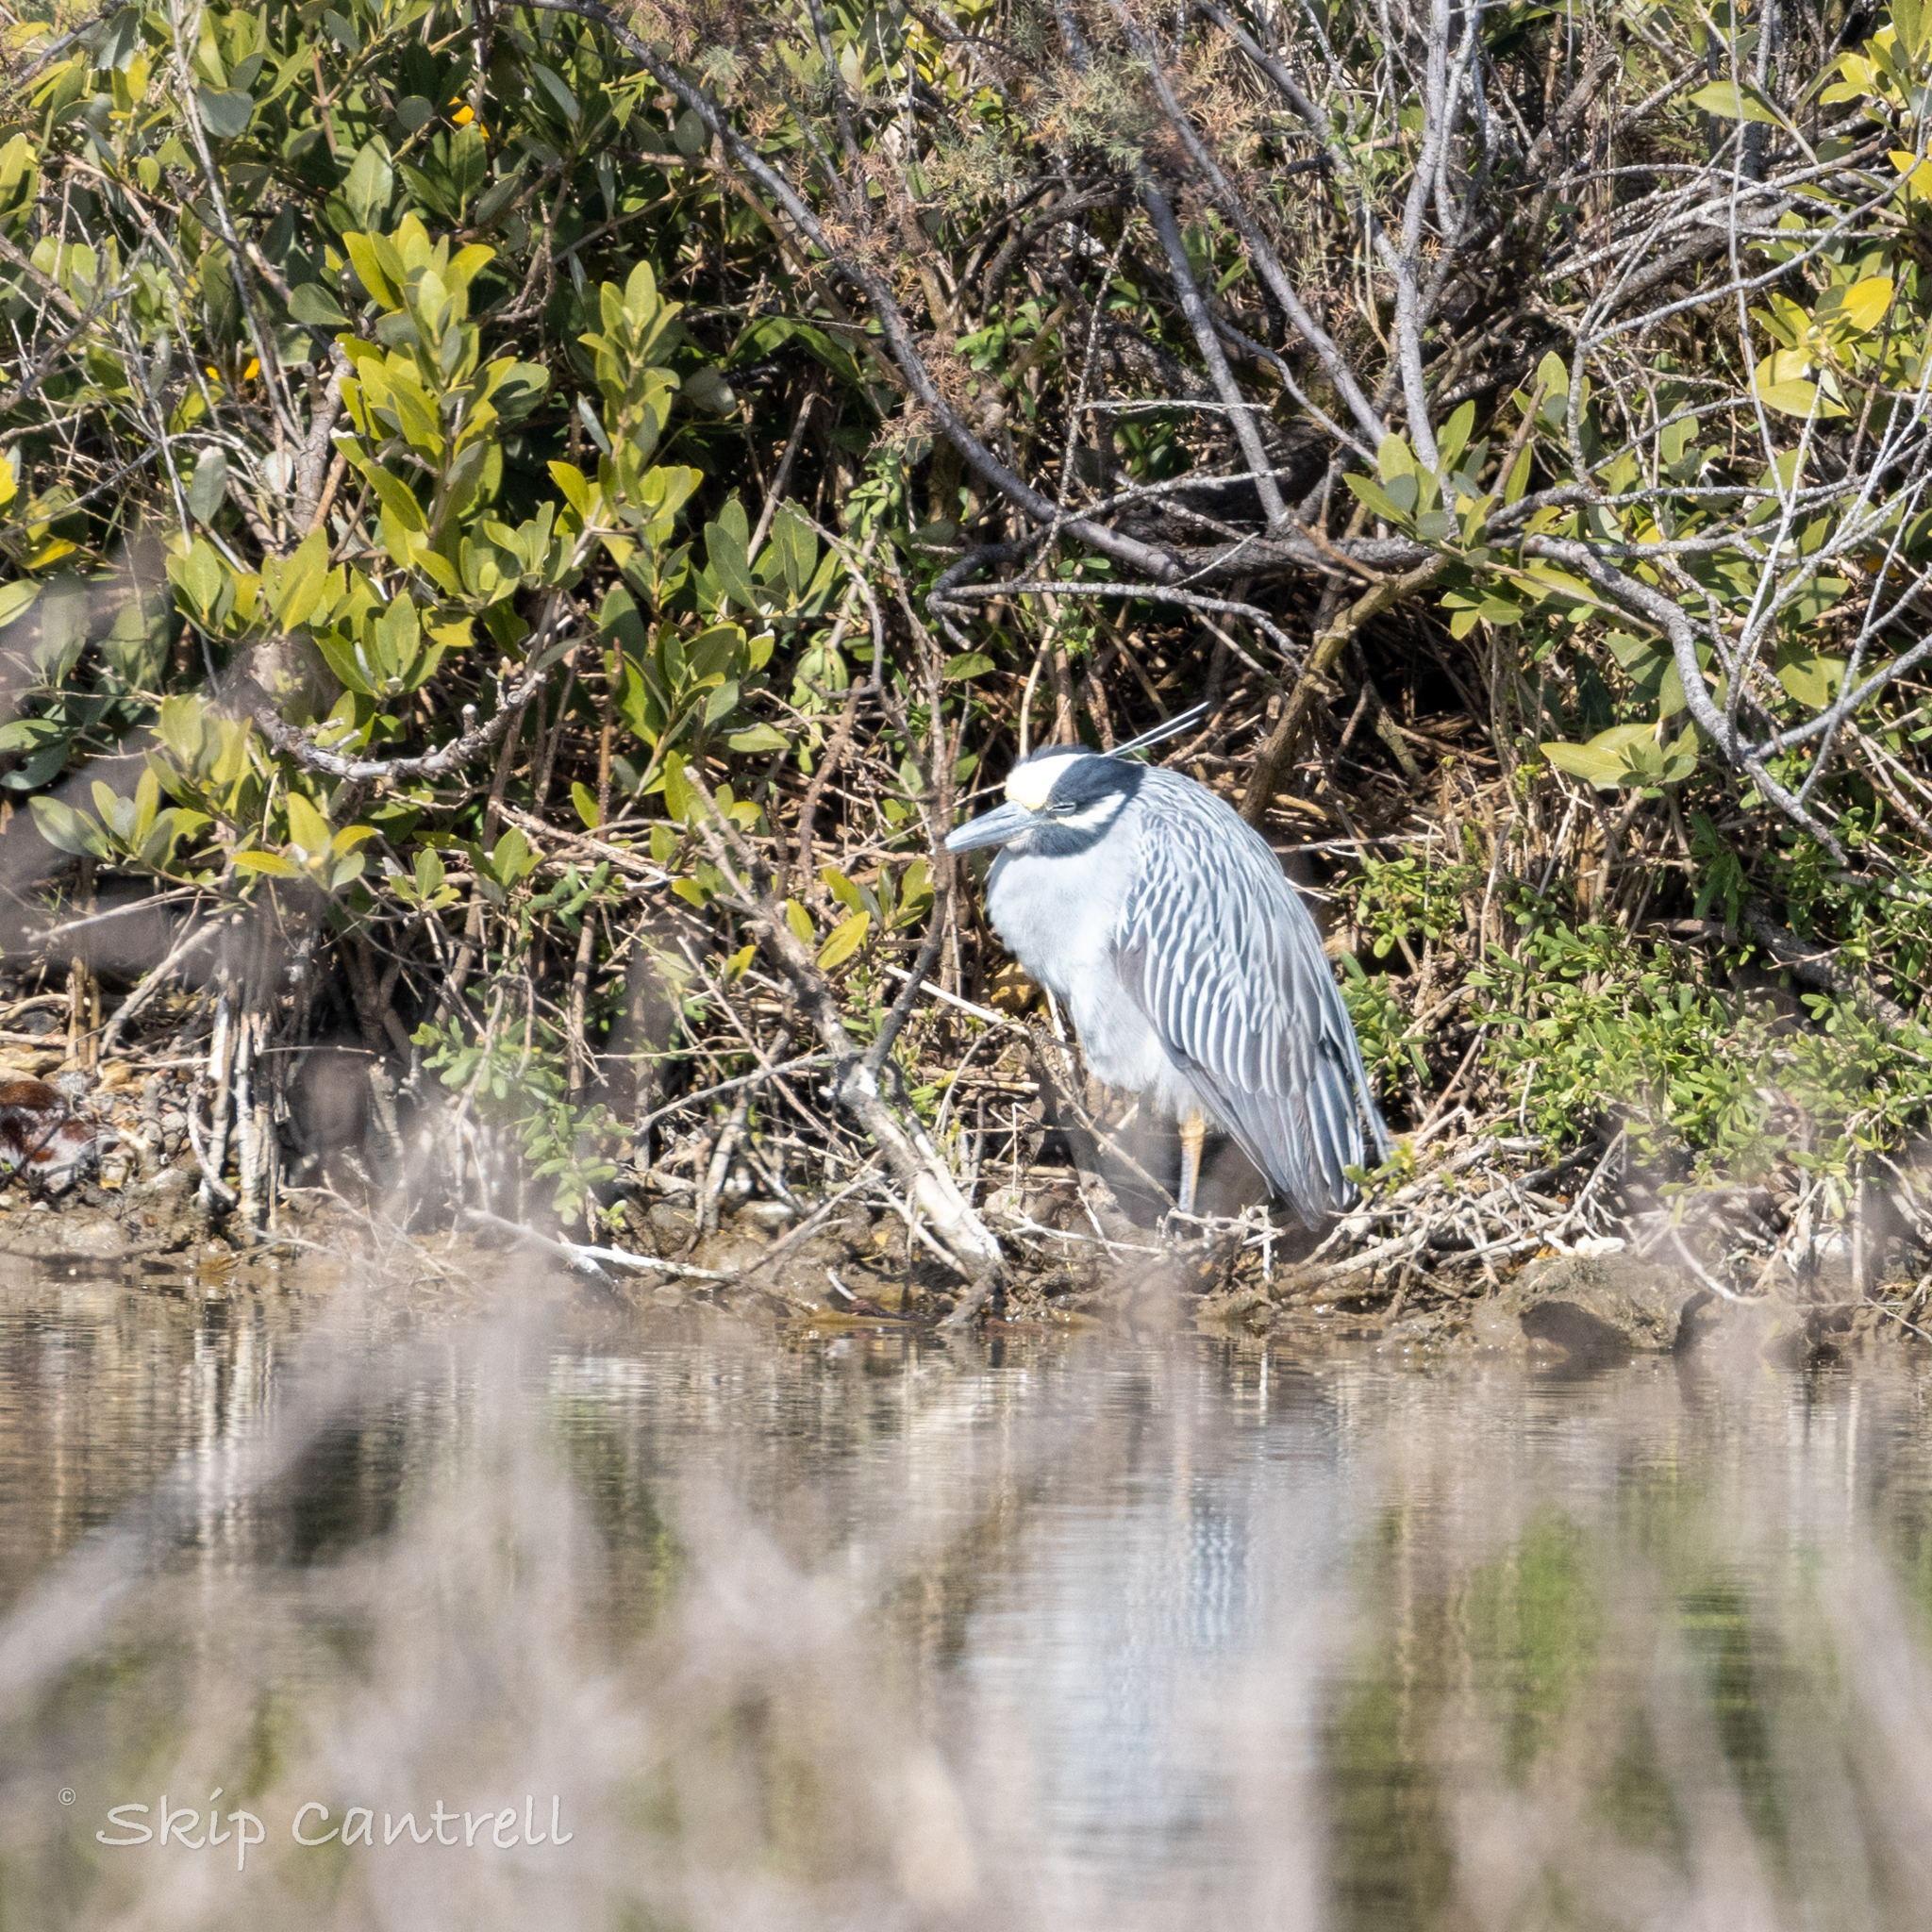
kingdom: Animalia
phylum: Chordata
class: Aves
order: Pelecaniformes
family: Ardeidae
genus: Nyctanassa
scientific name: Nyctanassa violacea
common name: Yellow-crowned night heron
